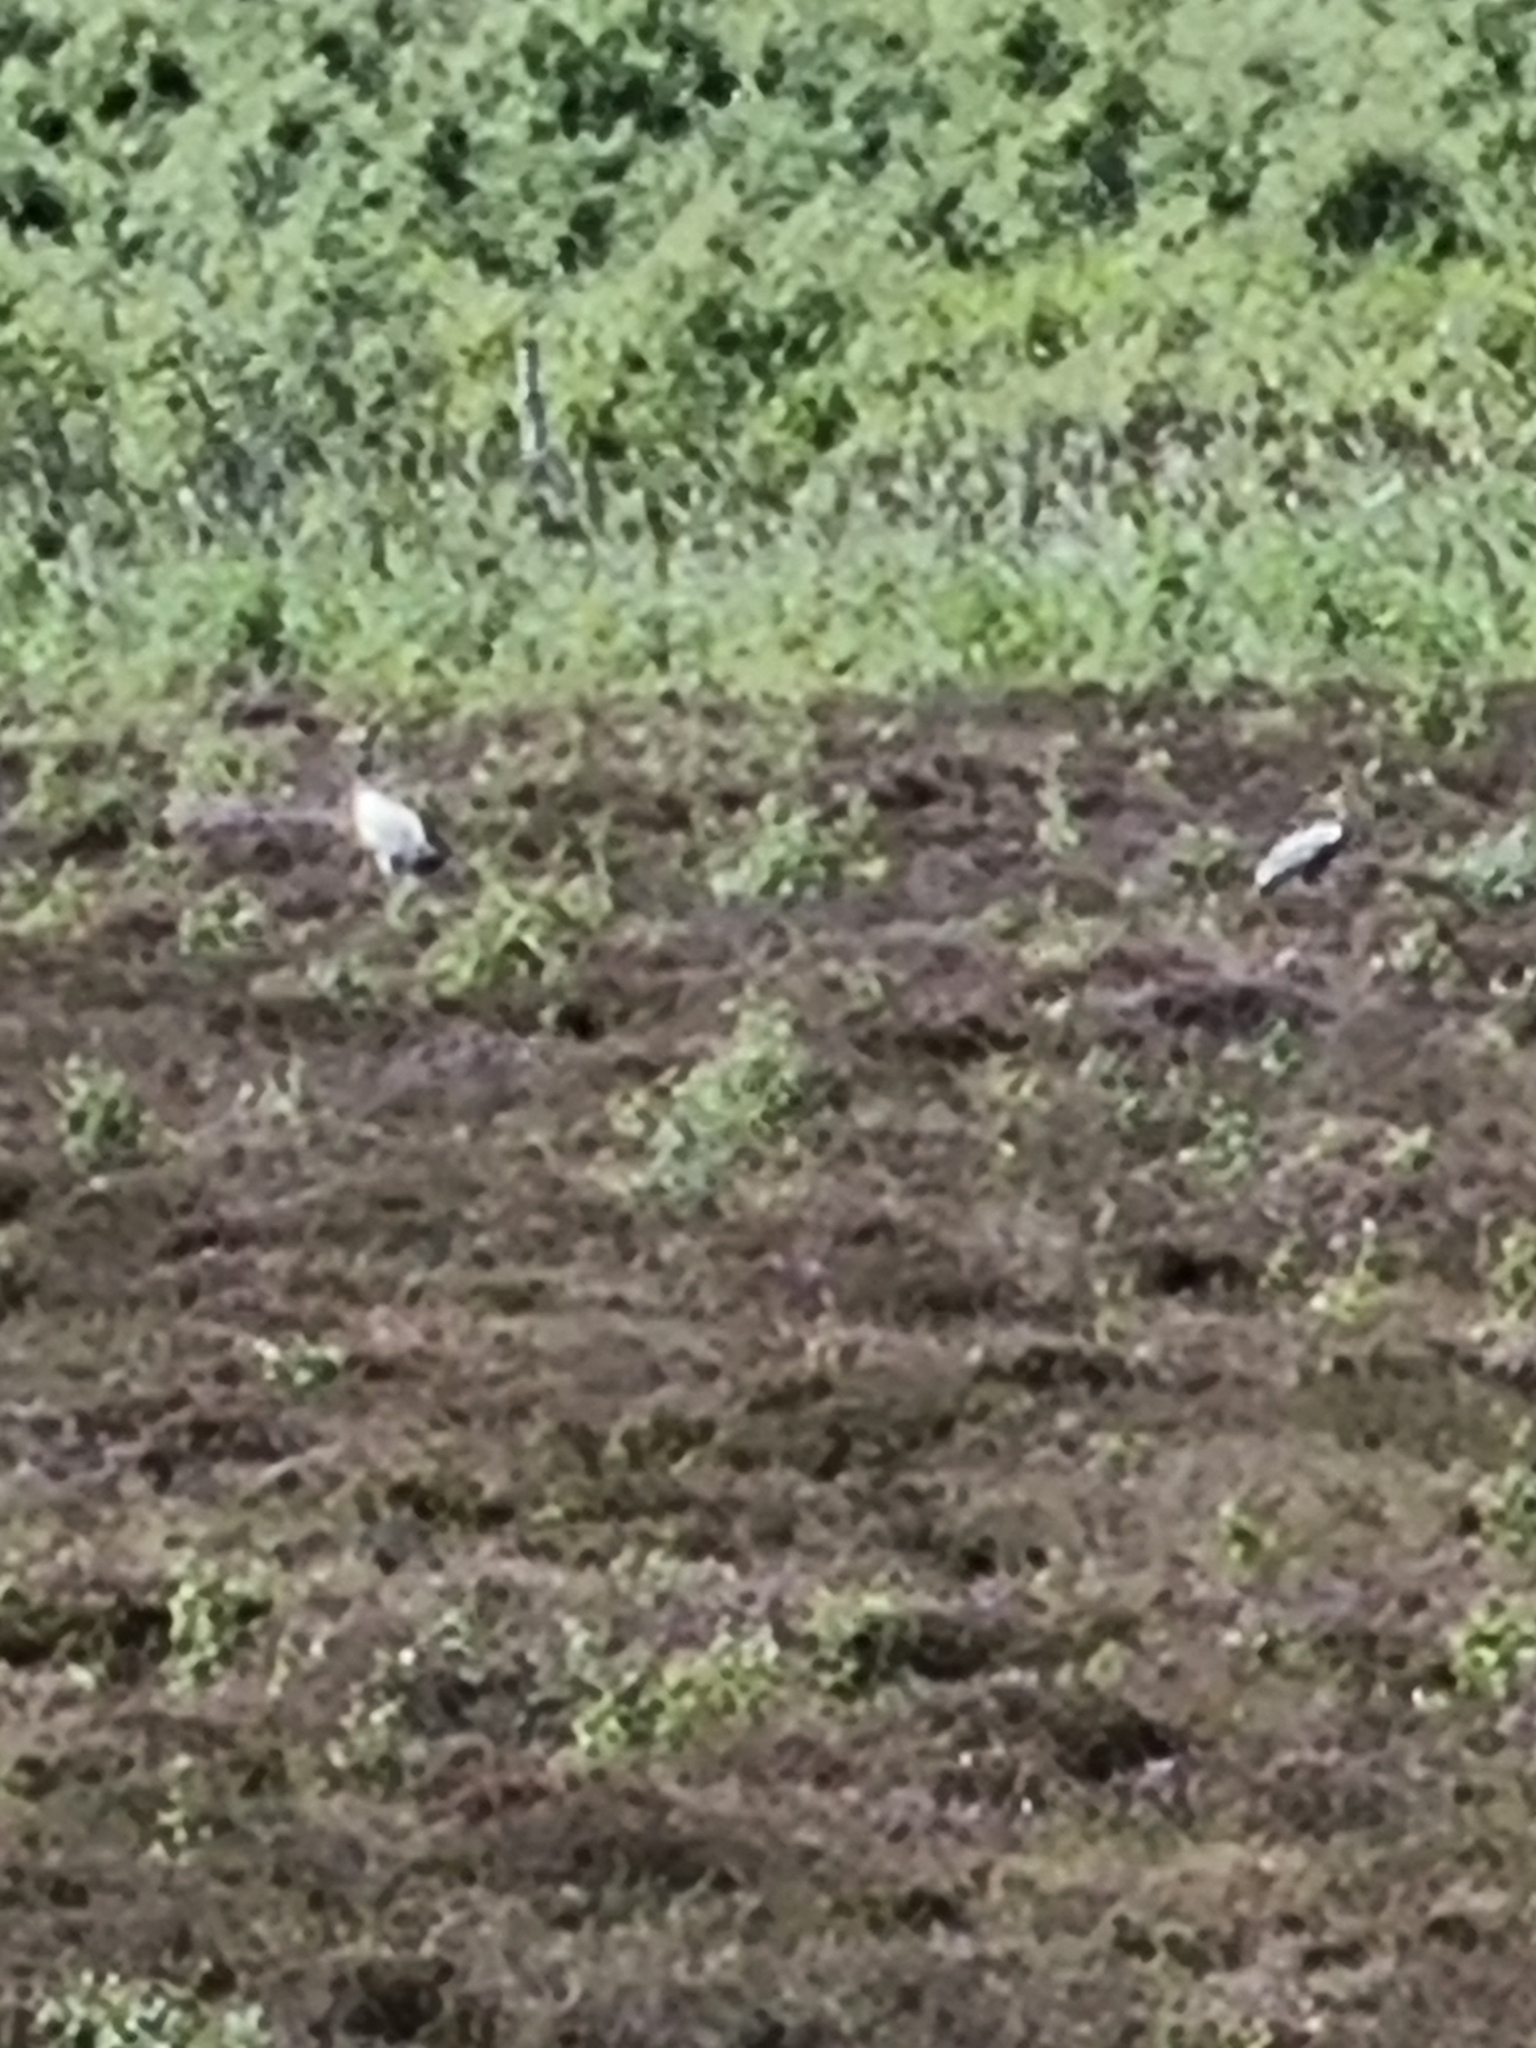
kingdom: Animalia
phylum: Chordata
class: Aves
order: Gruiformes
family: Gruidae
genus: Grus
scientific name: Grus grus
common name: Common crane
